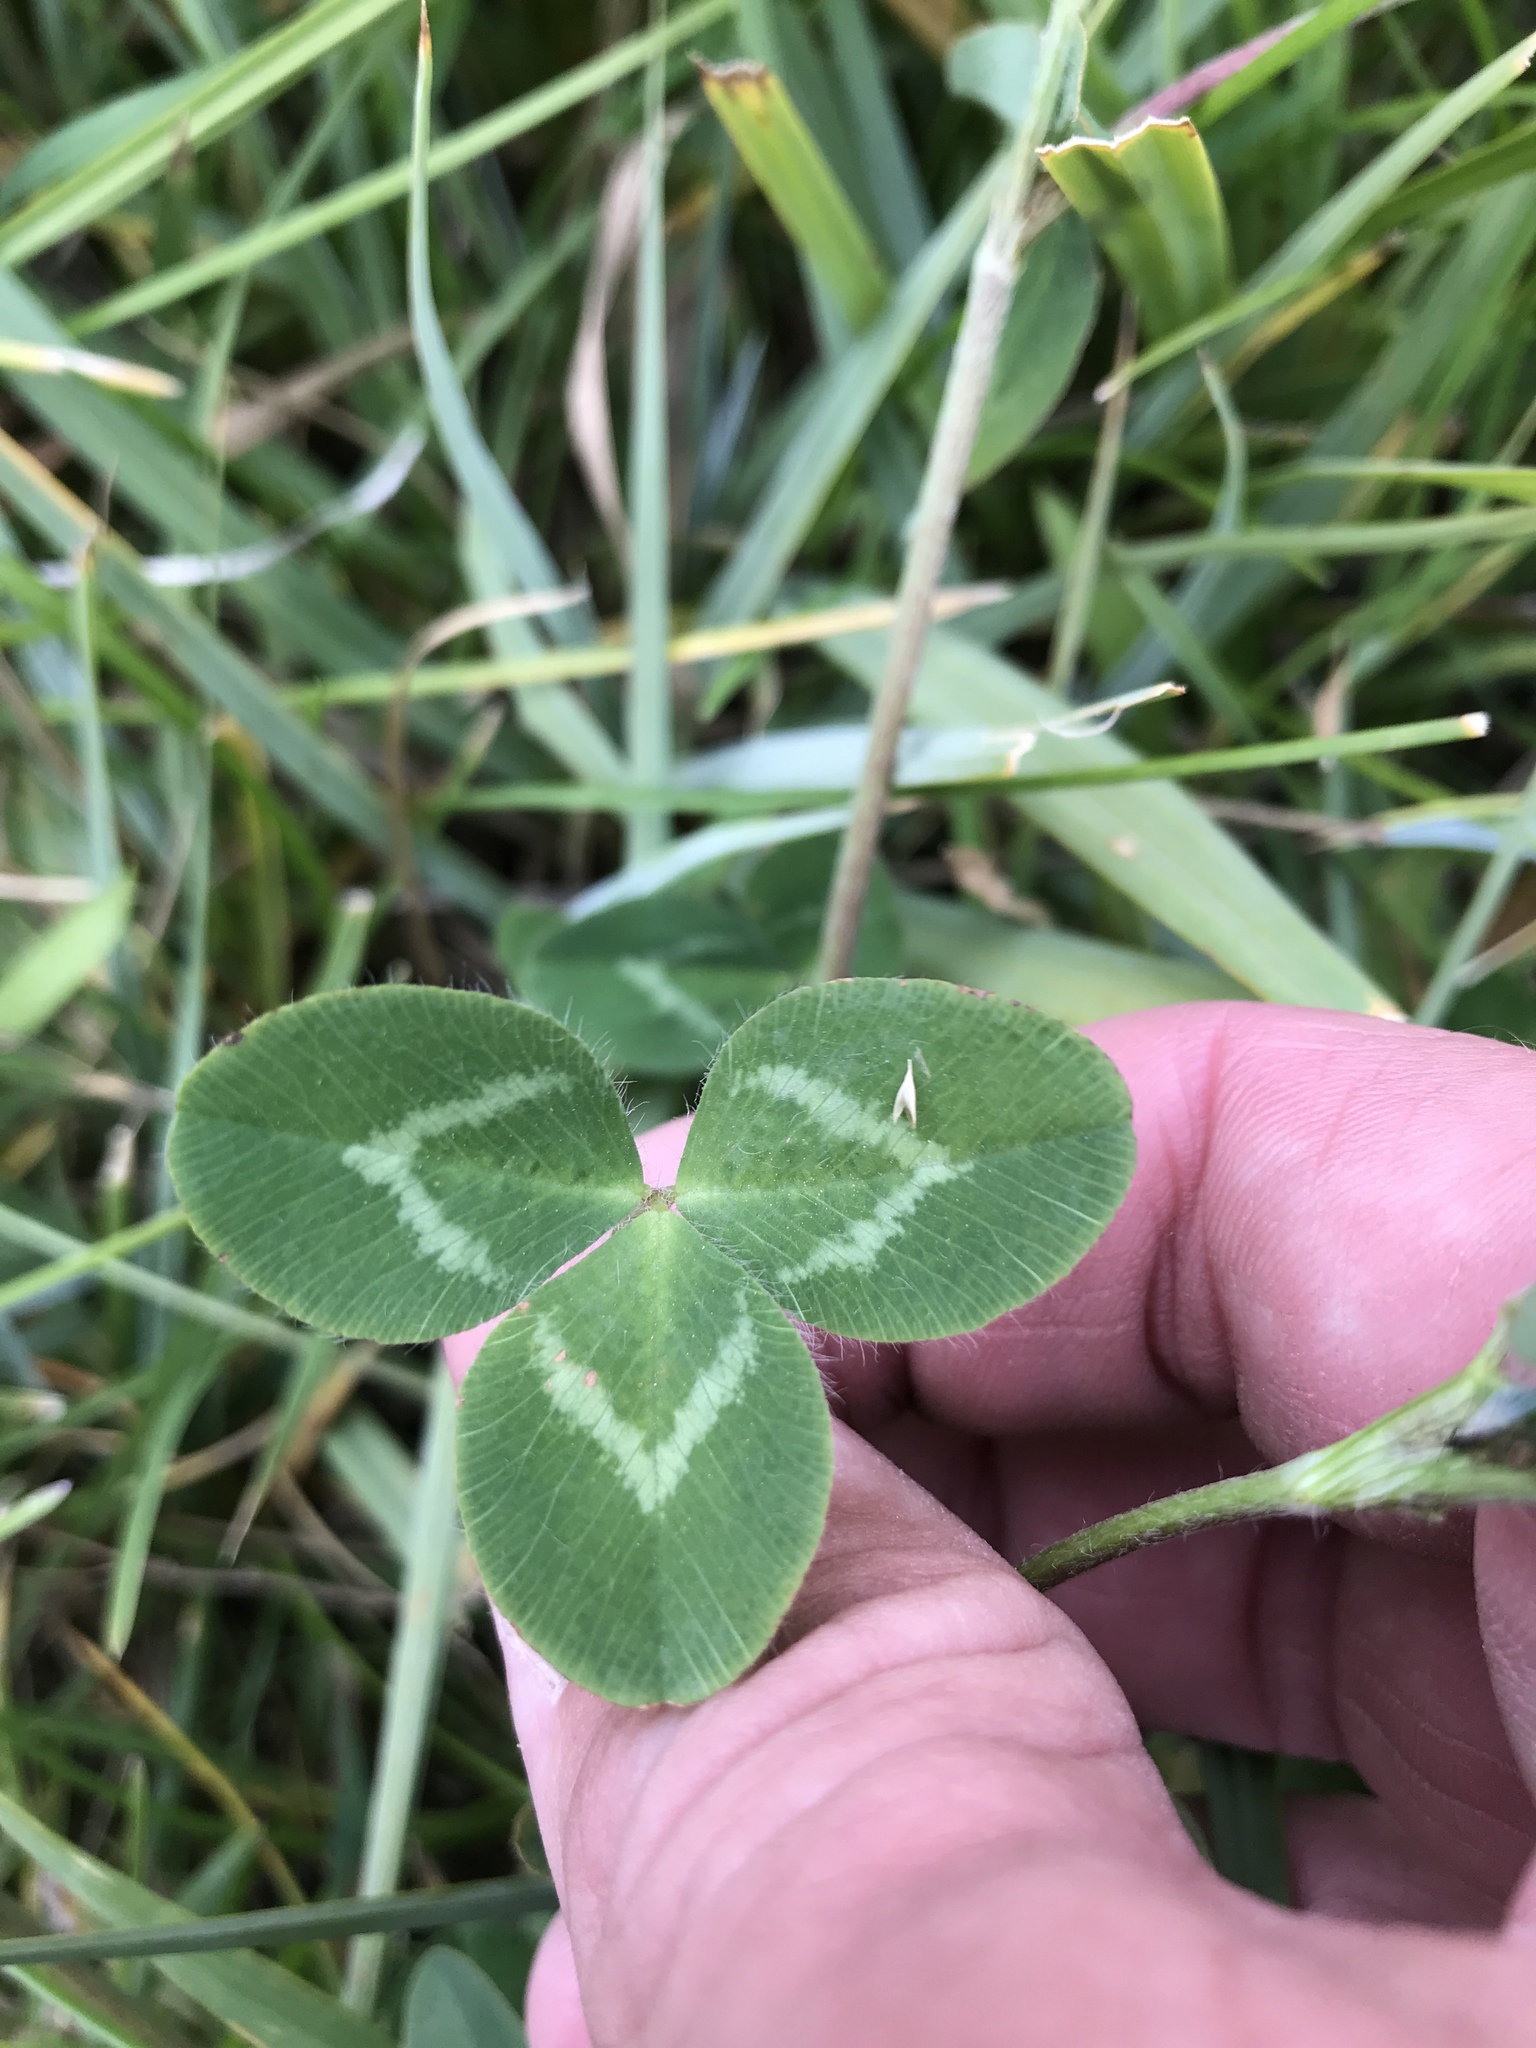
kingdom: Plantae
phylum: Tracheophyta
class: Magnoliopsida
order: Fabales
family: Fabaceae
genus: Trifolium
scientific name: Trifolium pratense
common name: Red clover
